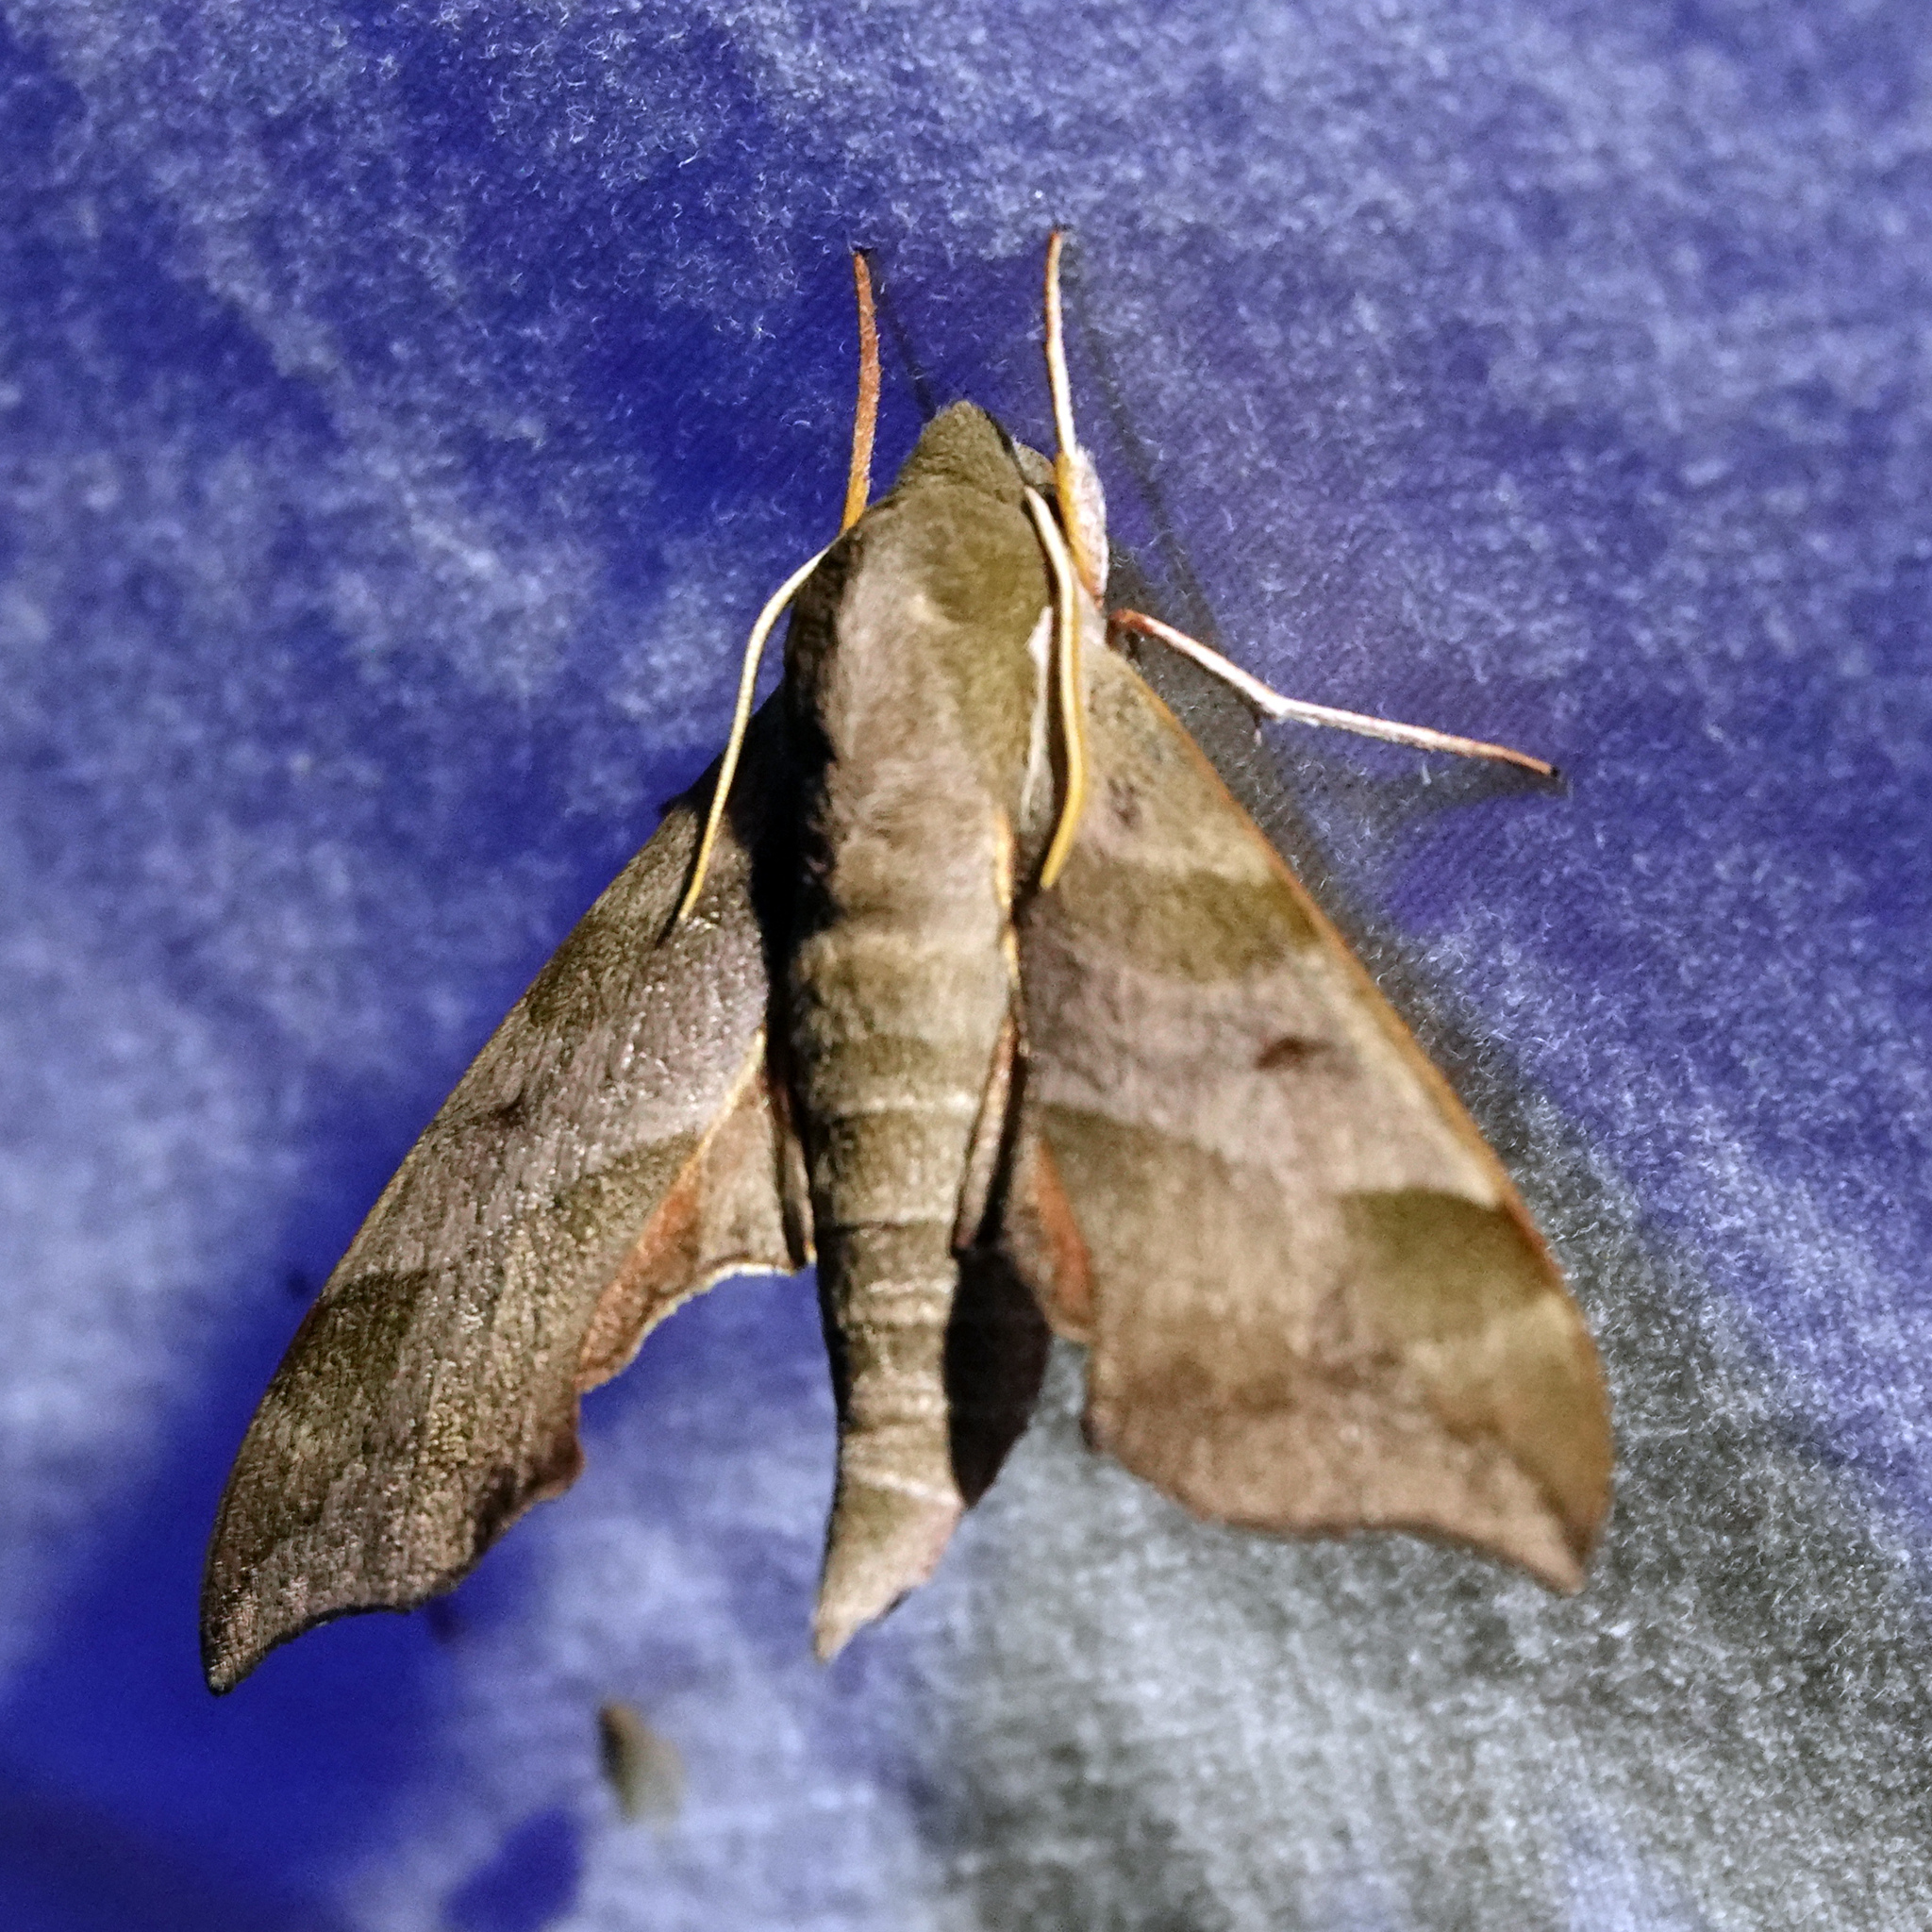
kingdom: Animalia
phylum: Arthropoda
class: Insecta
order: Lepidoptera
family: Sphingidae
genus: Darapsa
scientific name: Darapsa myron
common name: Hog sphinx
